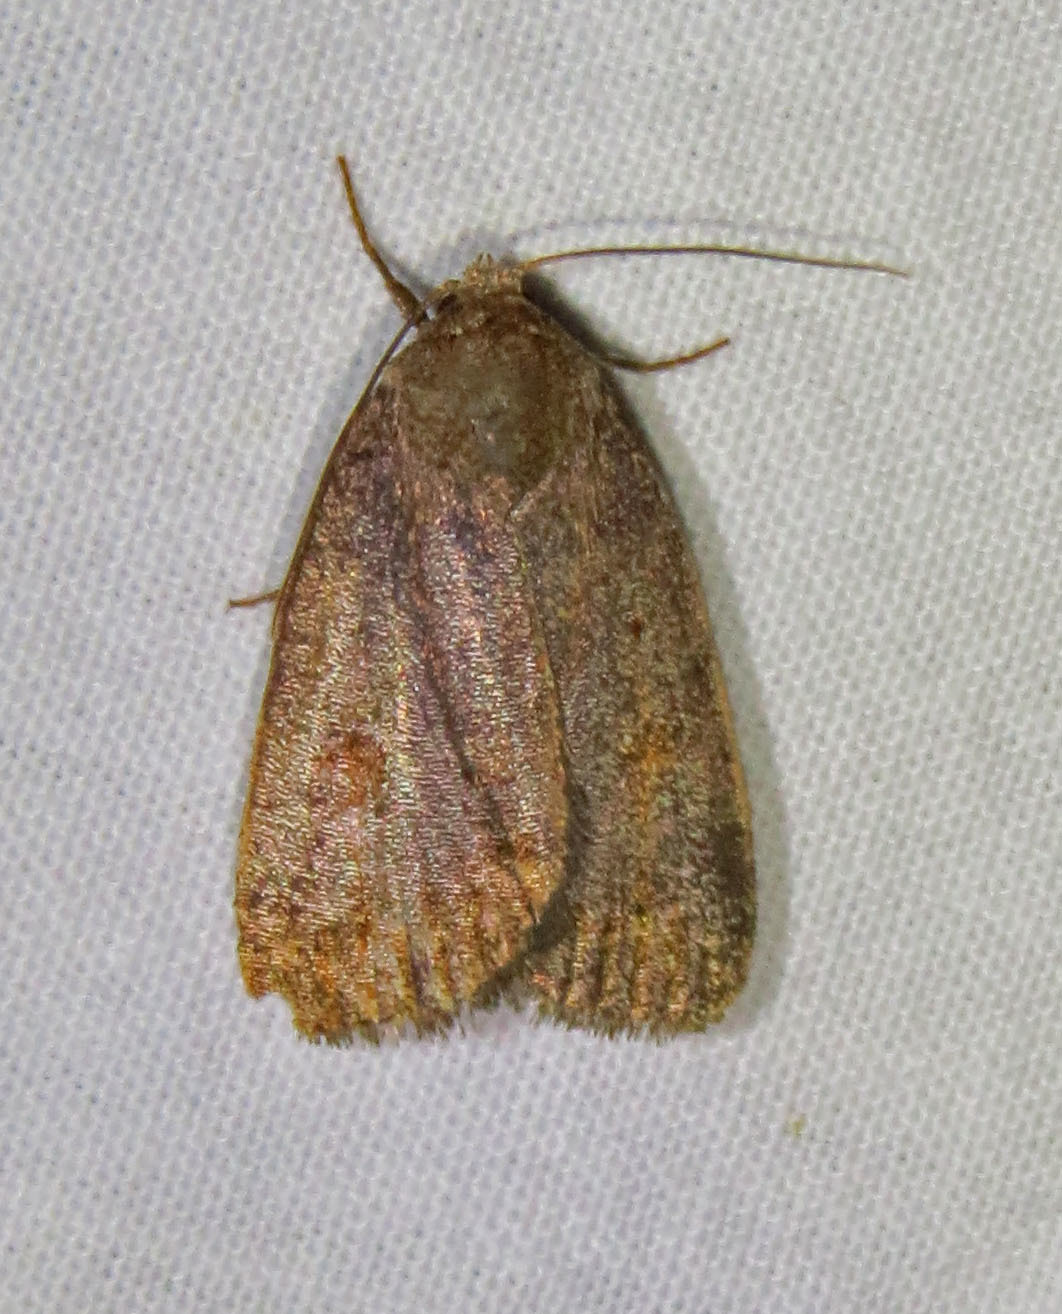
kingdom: Animalia
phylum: Arthropoda
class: Insecta
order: Lepidoptera
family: Noctuidae
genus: Athetis
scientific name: Athetis tarda
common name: Slowpoke moth
